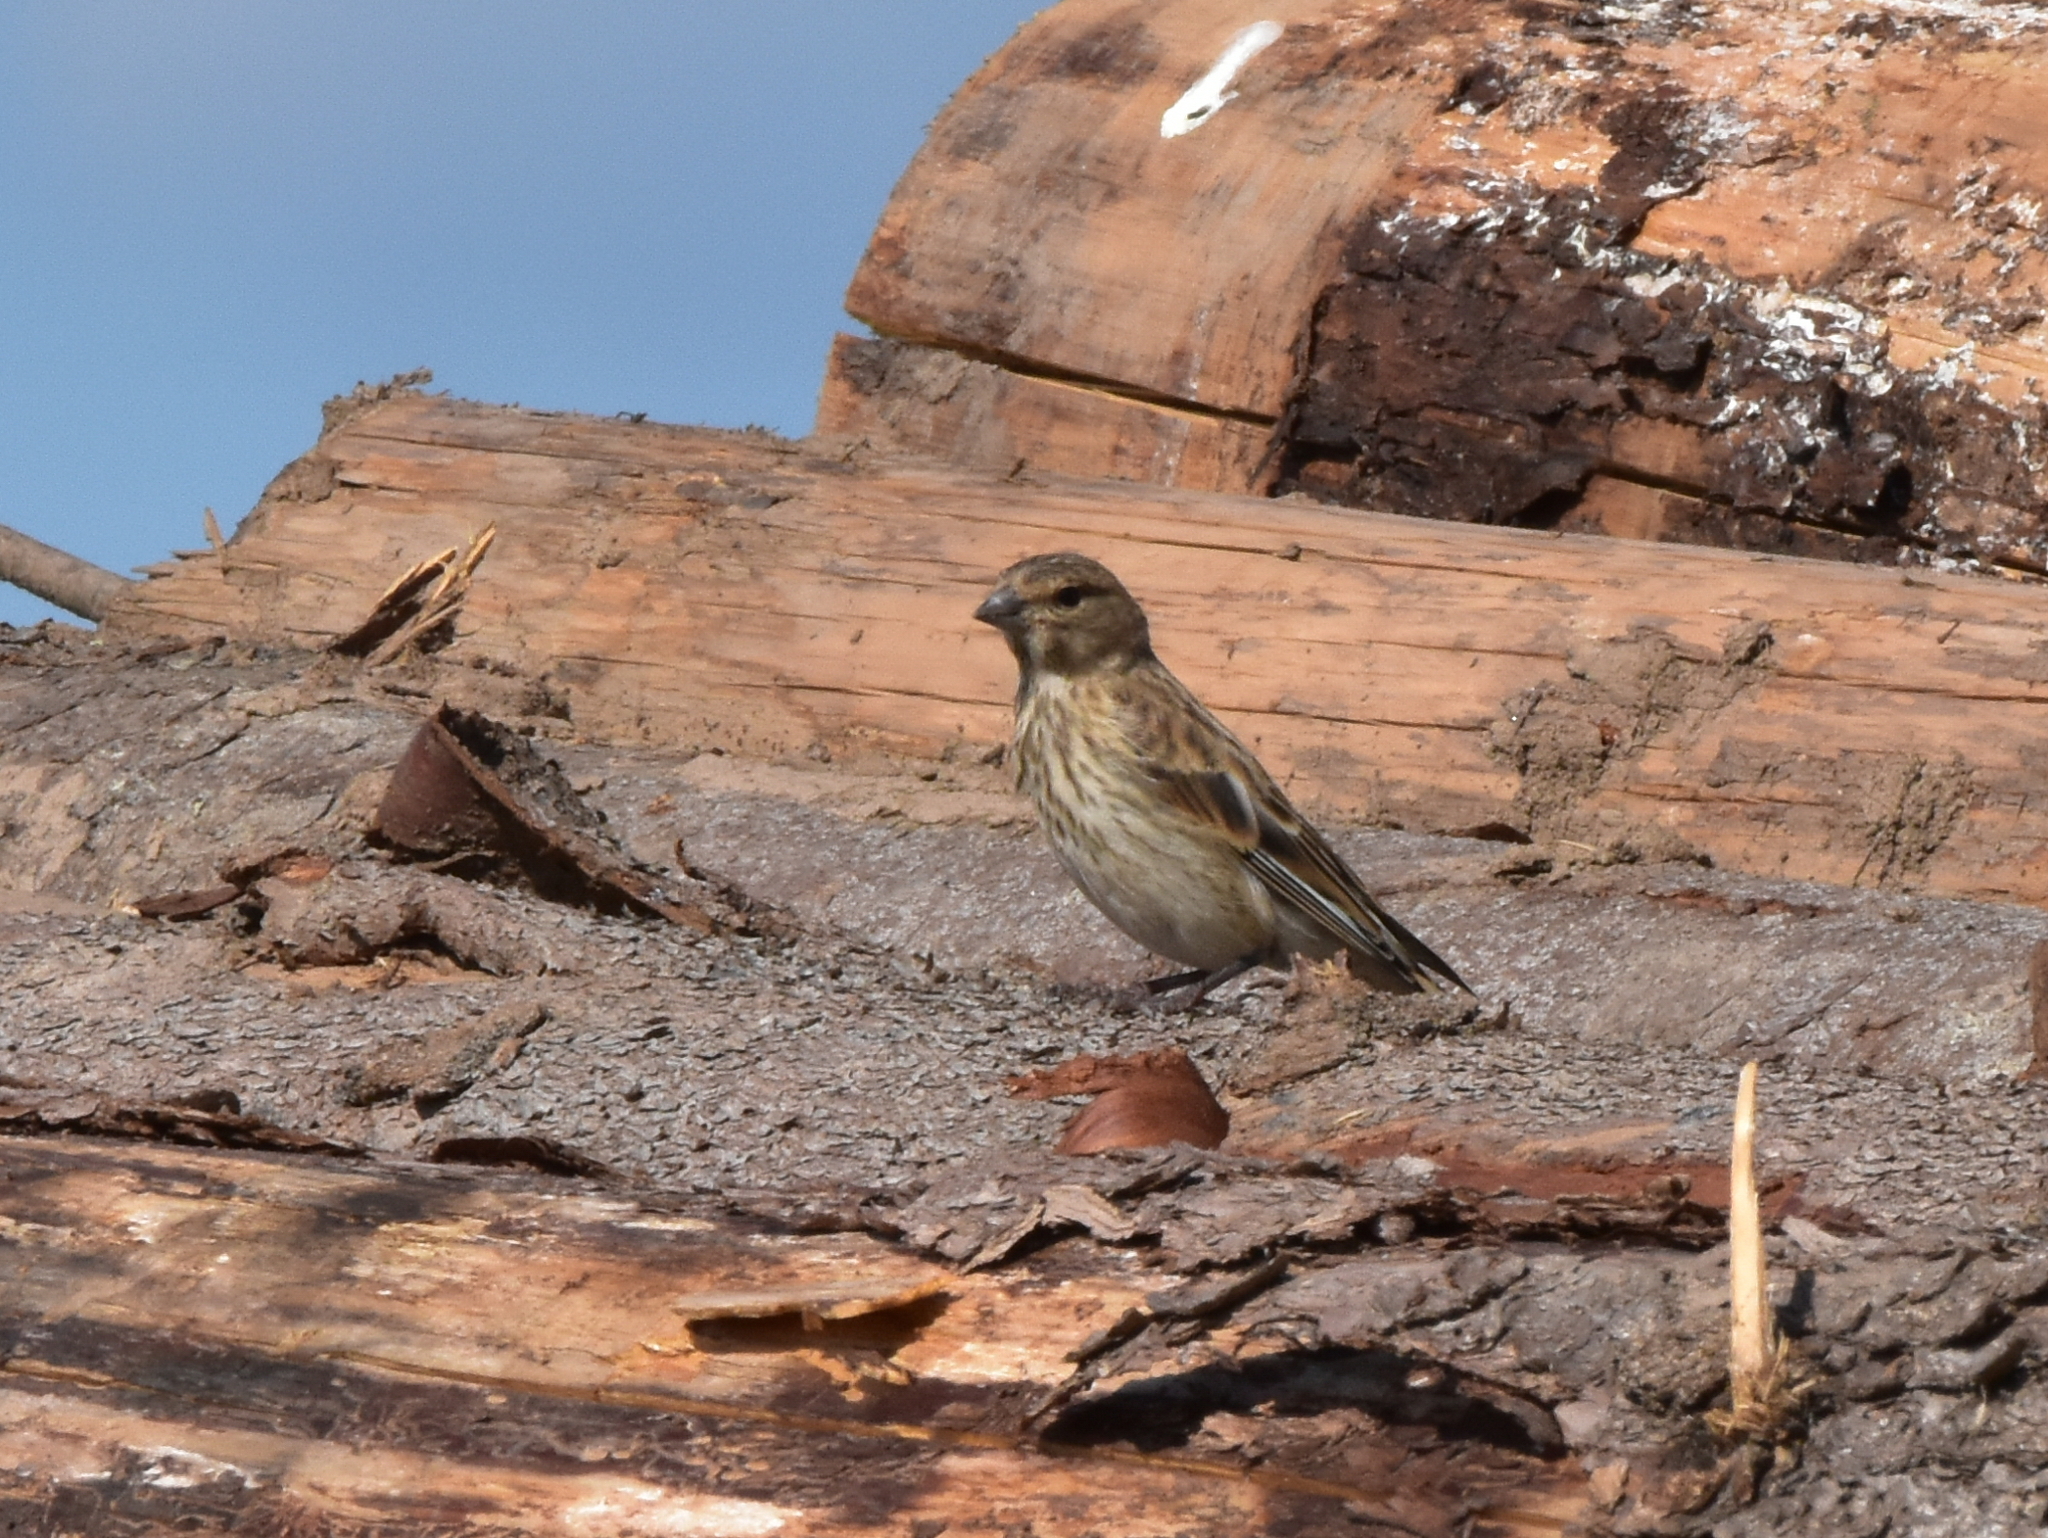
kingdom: Animalia
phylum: Chordata
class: Aves
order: Passeriformes
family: Fringillidae
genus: Linaria
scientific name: Linaria cannabina
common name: Common linnet
